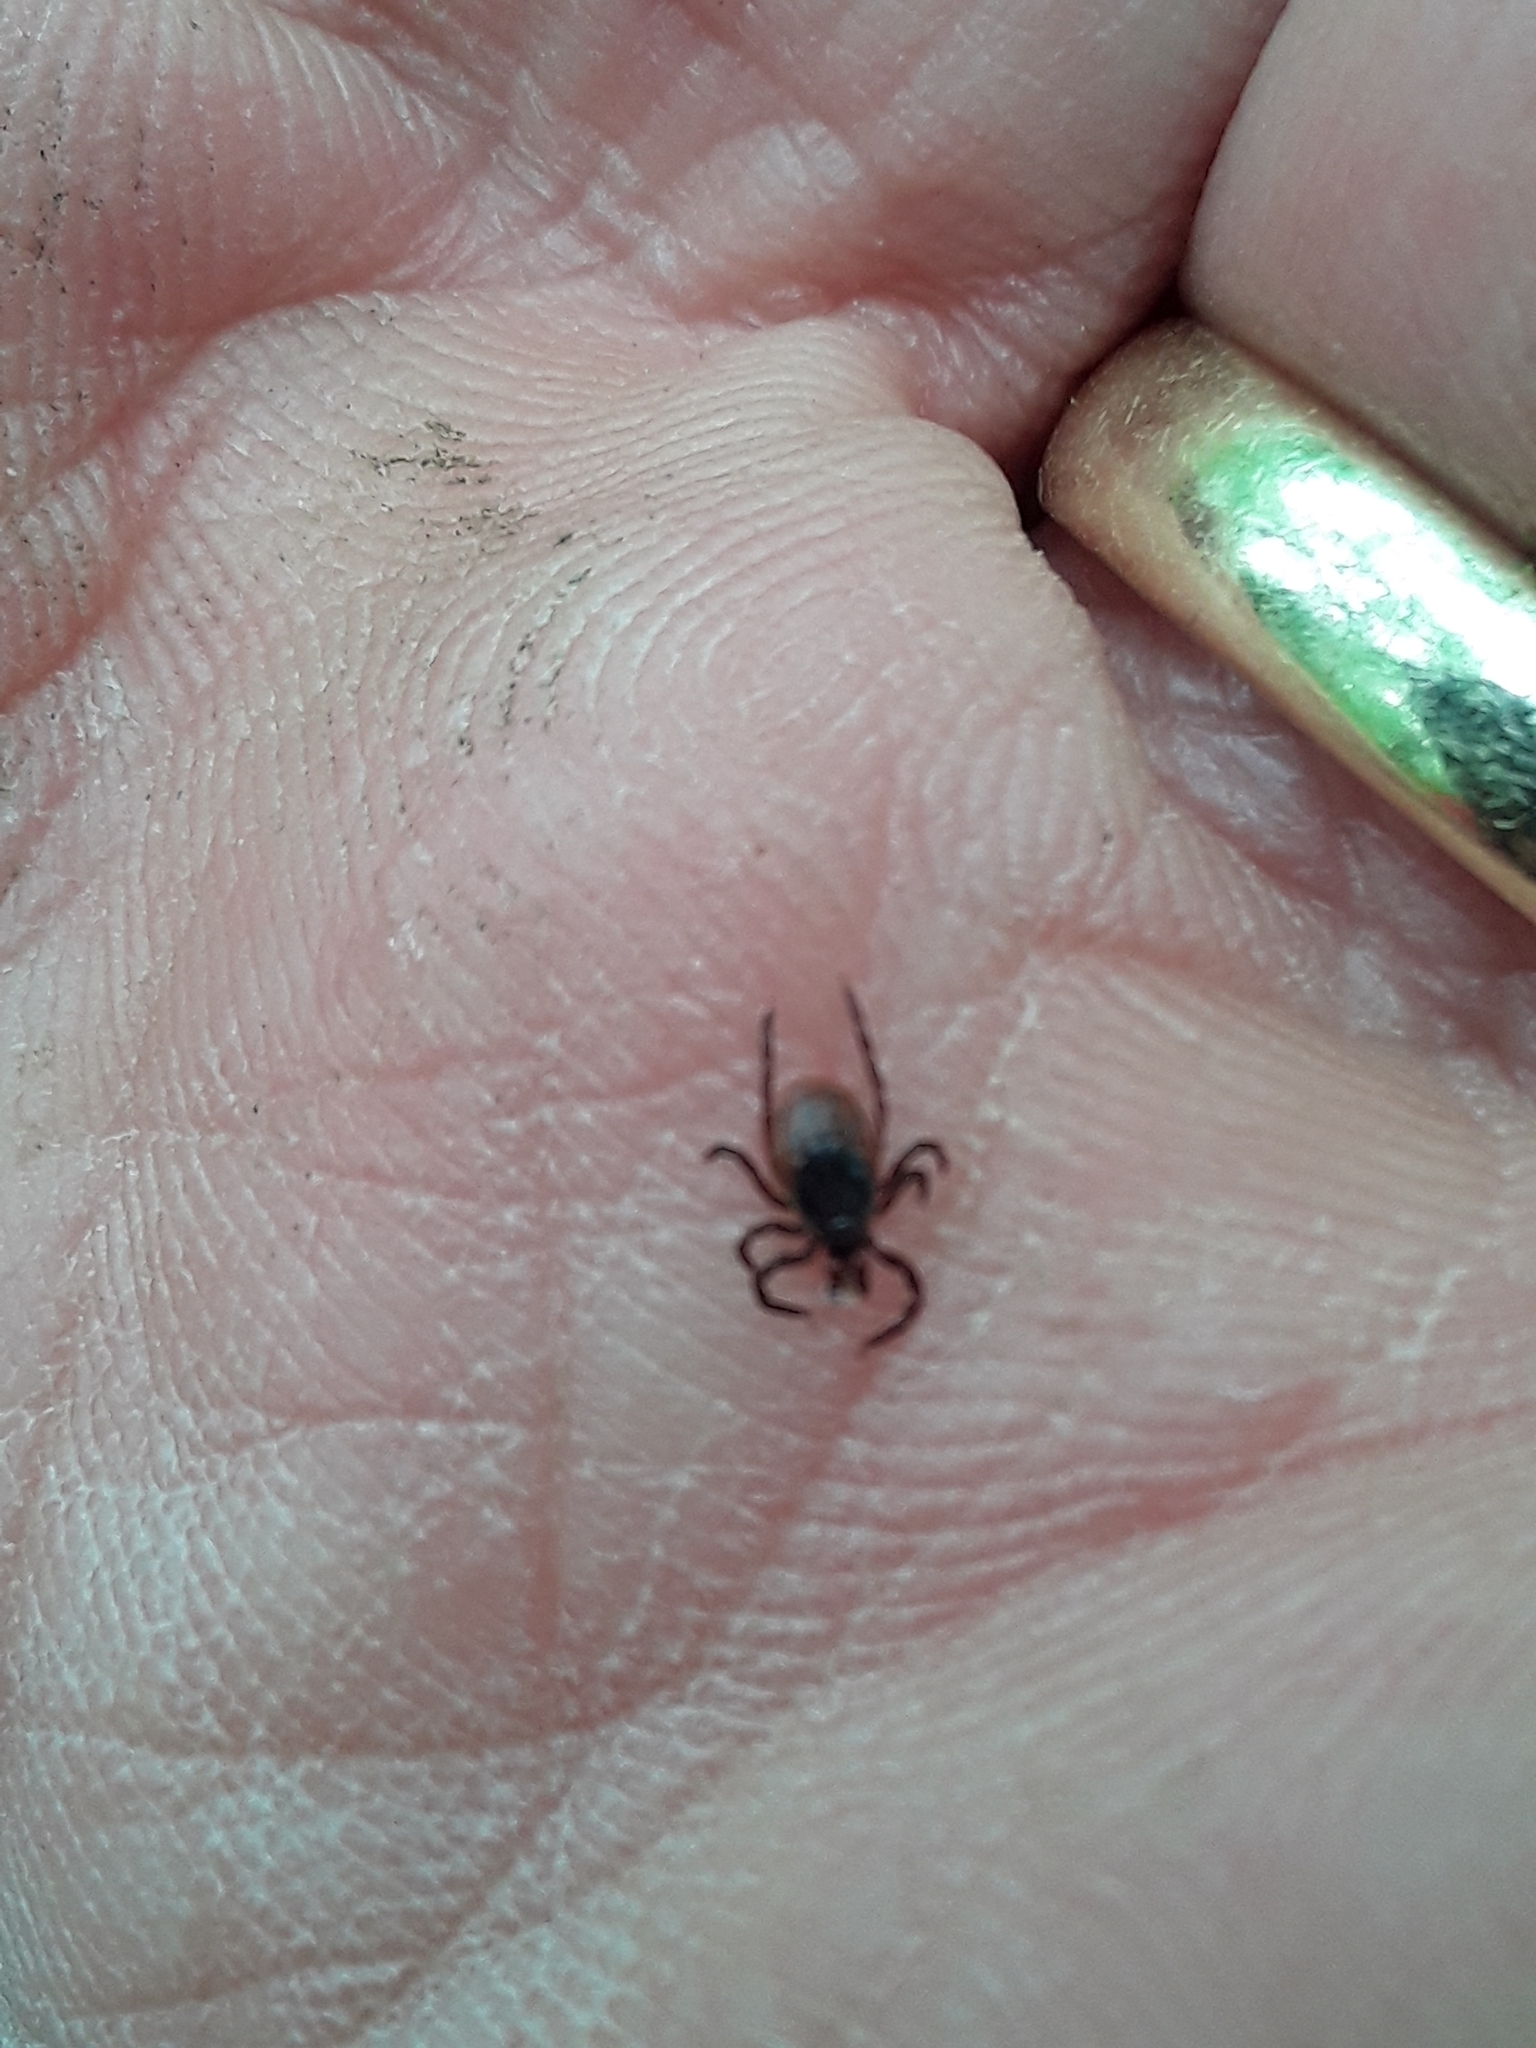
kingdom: Animalia
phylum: Arthropoda
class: Arachnida
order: Ixodida
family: Ixodidae
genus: Ixodes
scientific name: Ixodes scapularis
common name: Black legged tick
